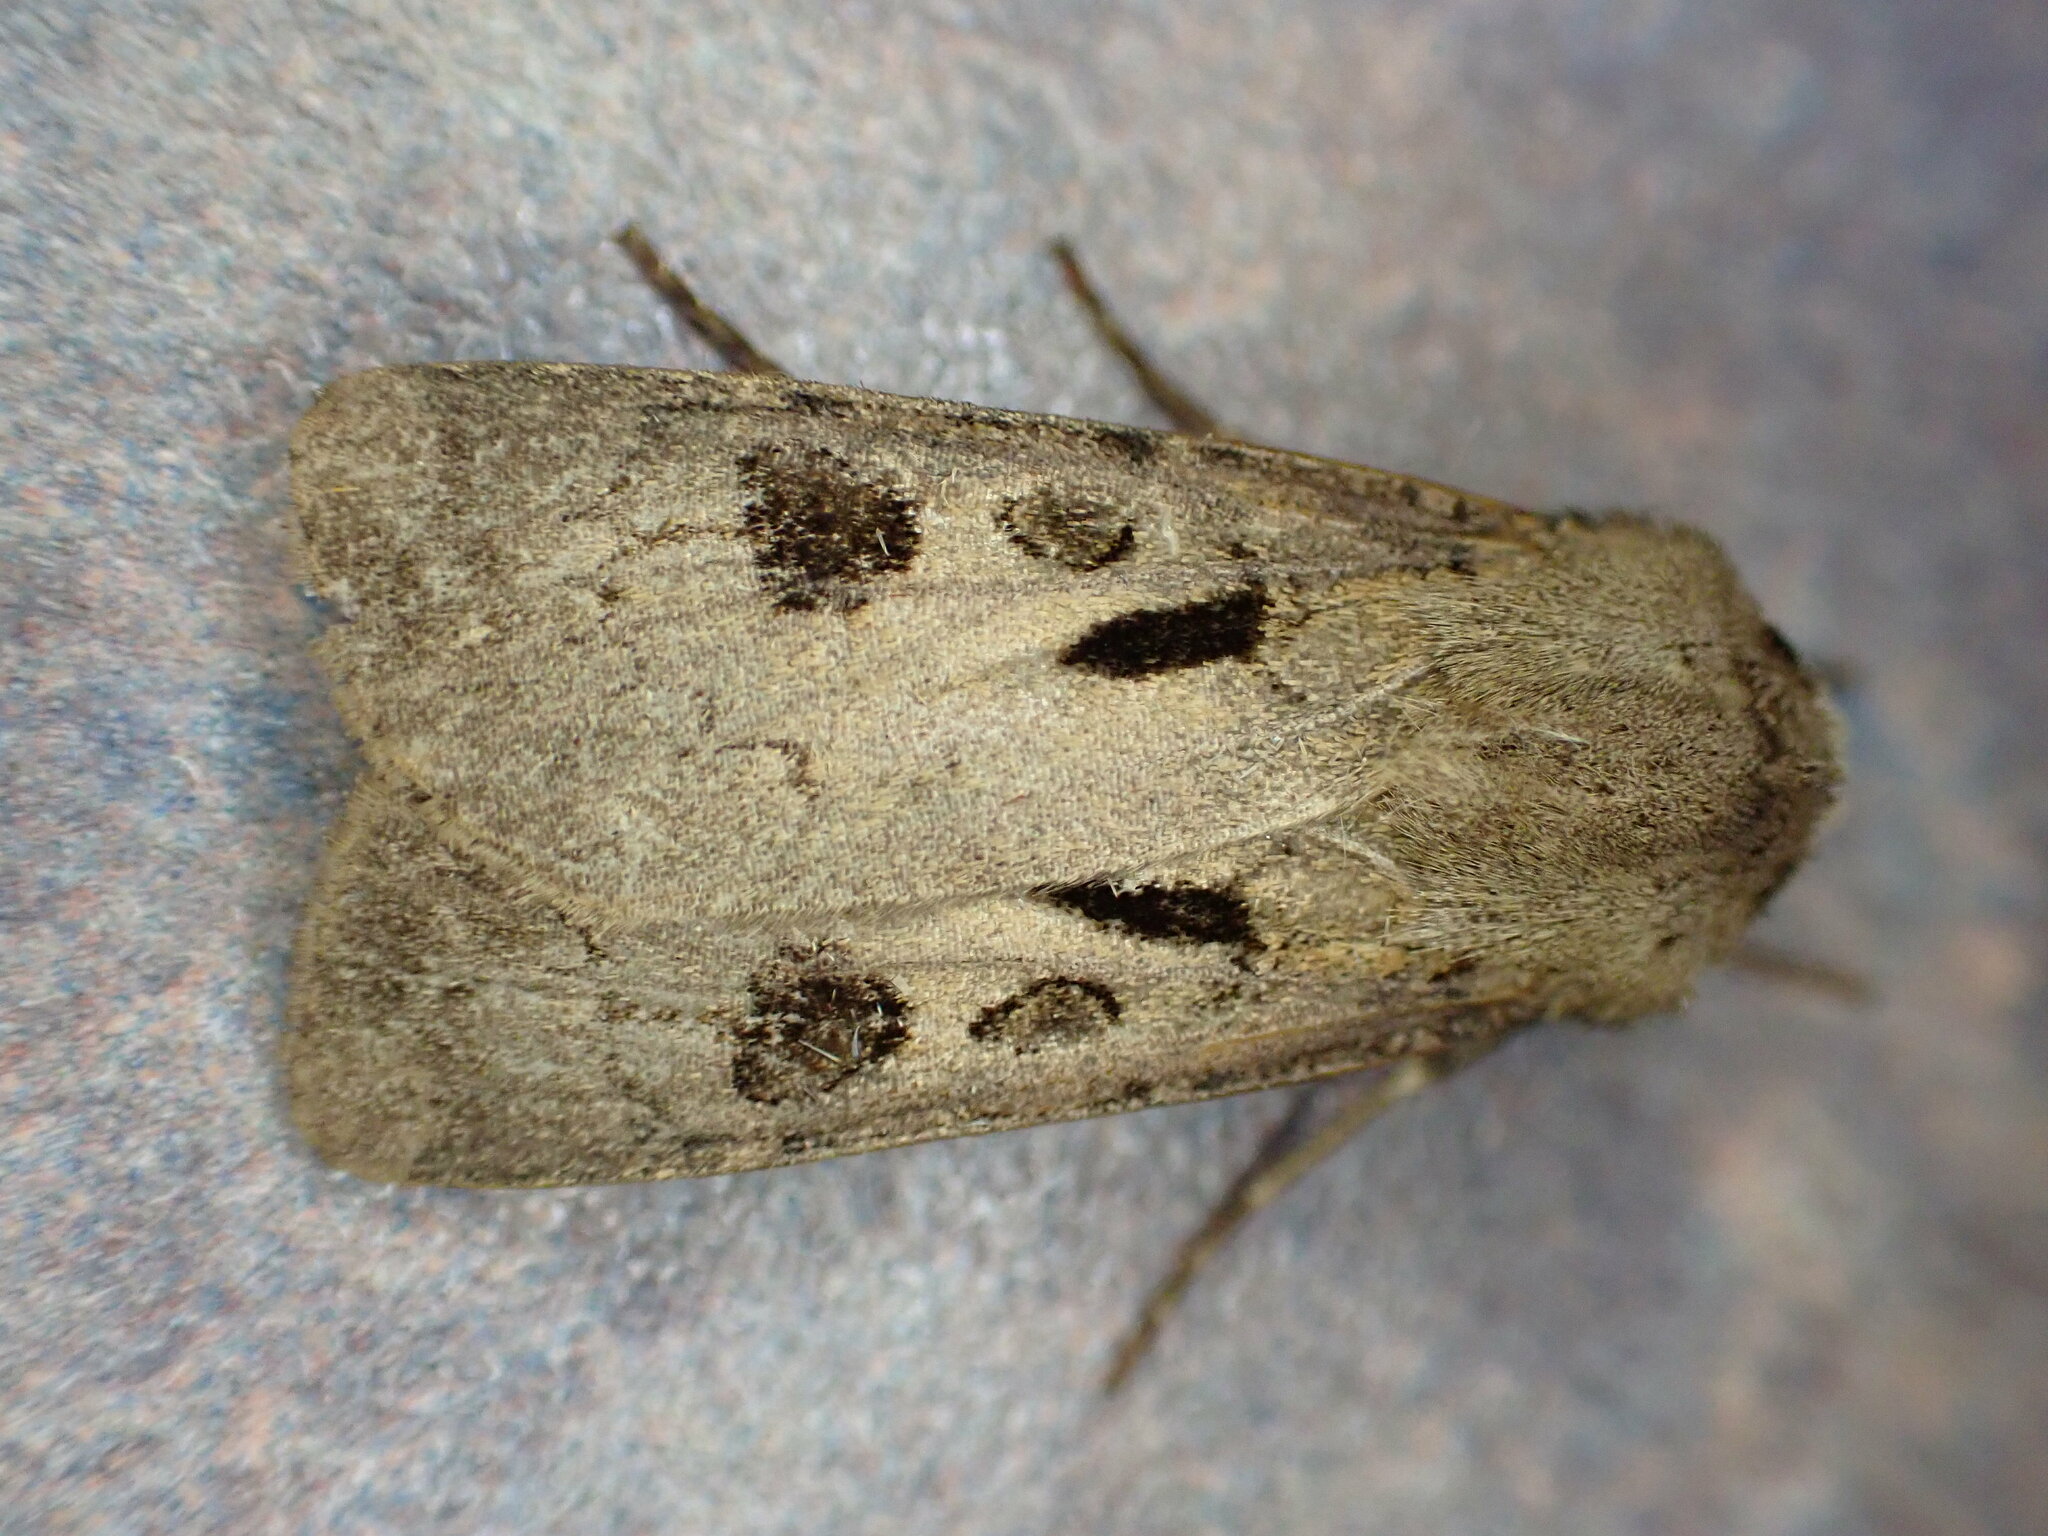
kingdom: Animalia
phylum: Arthropoda
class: Insecta
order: Lepidoptera
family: Noctuidae
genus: Agrotis
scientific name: Agrotis exclamationis
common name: Heart and dart
